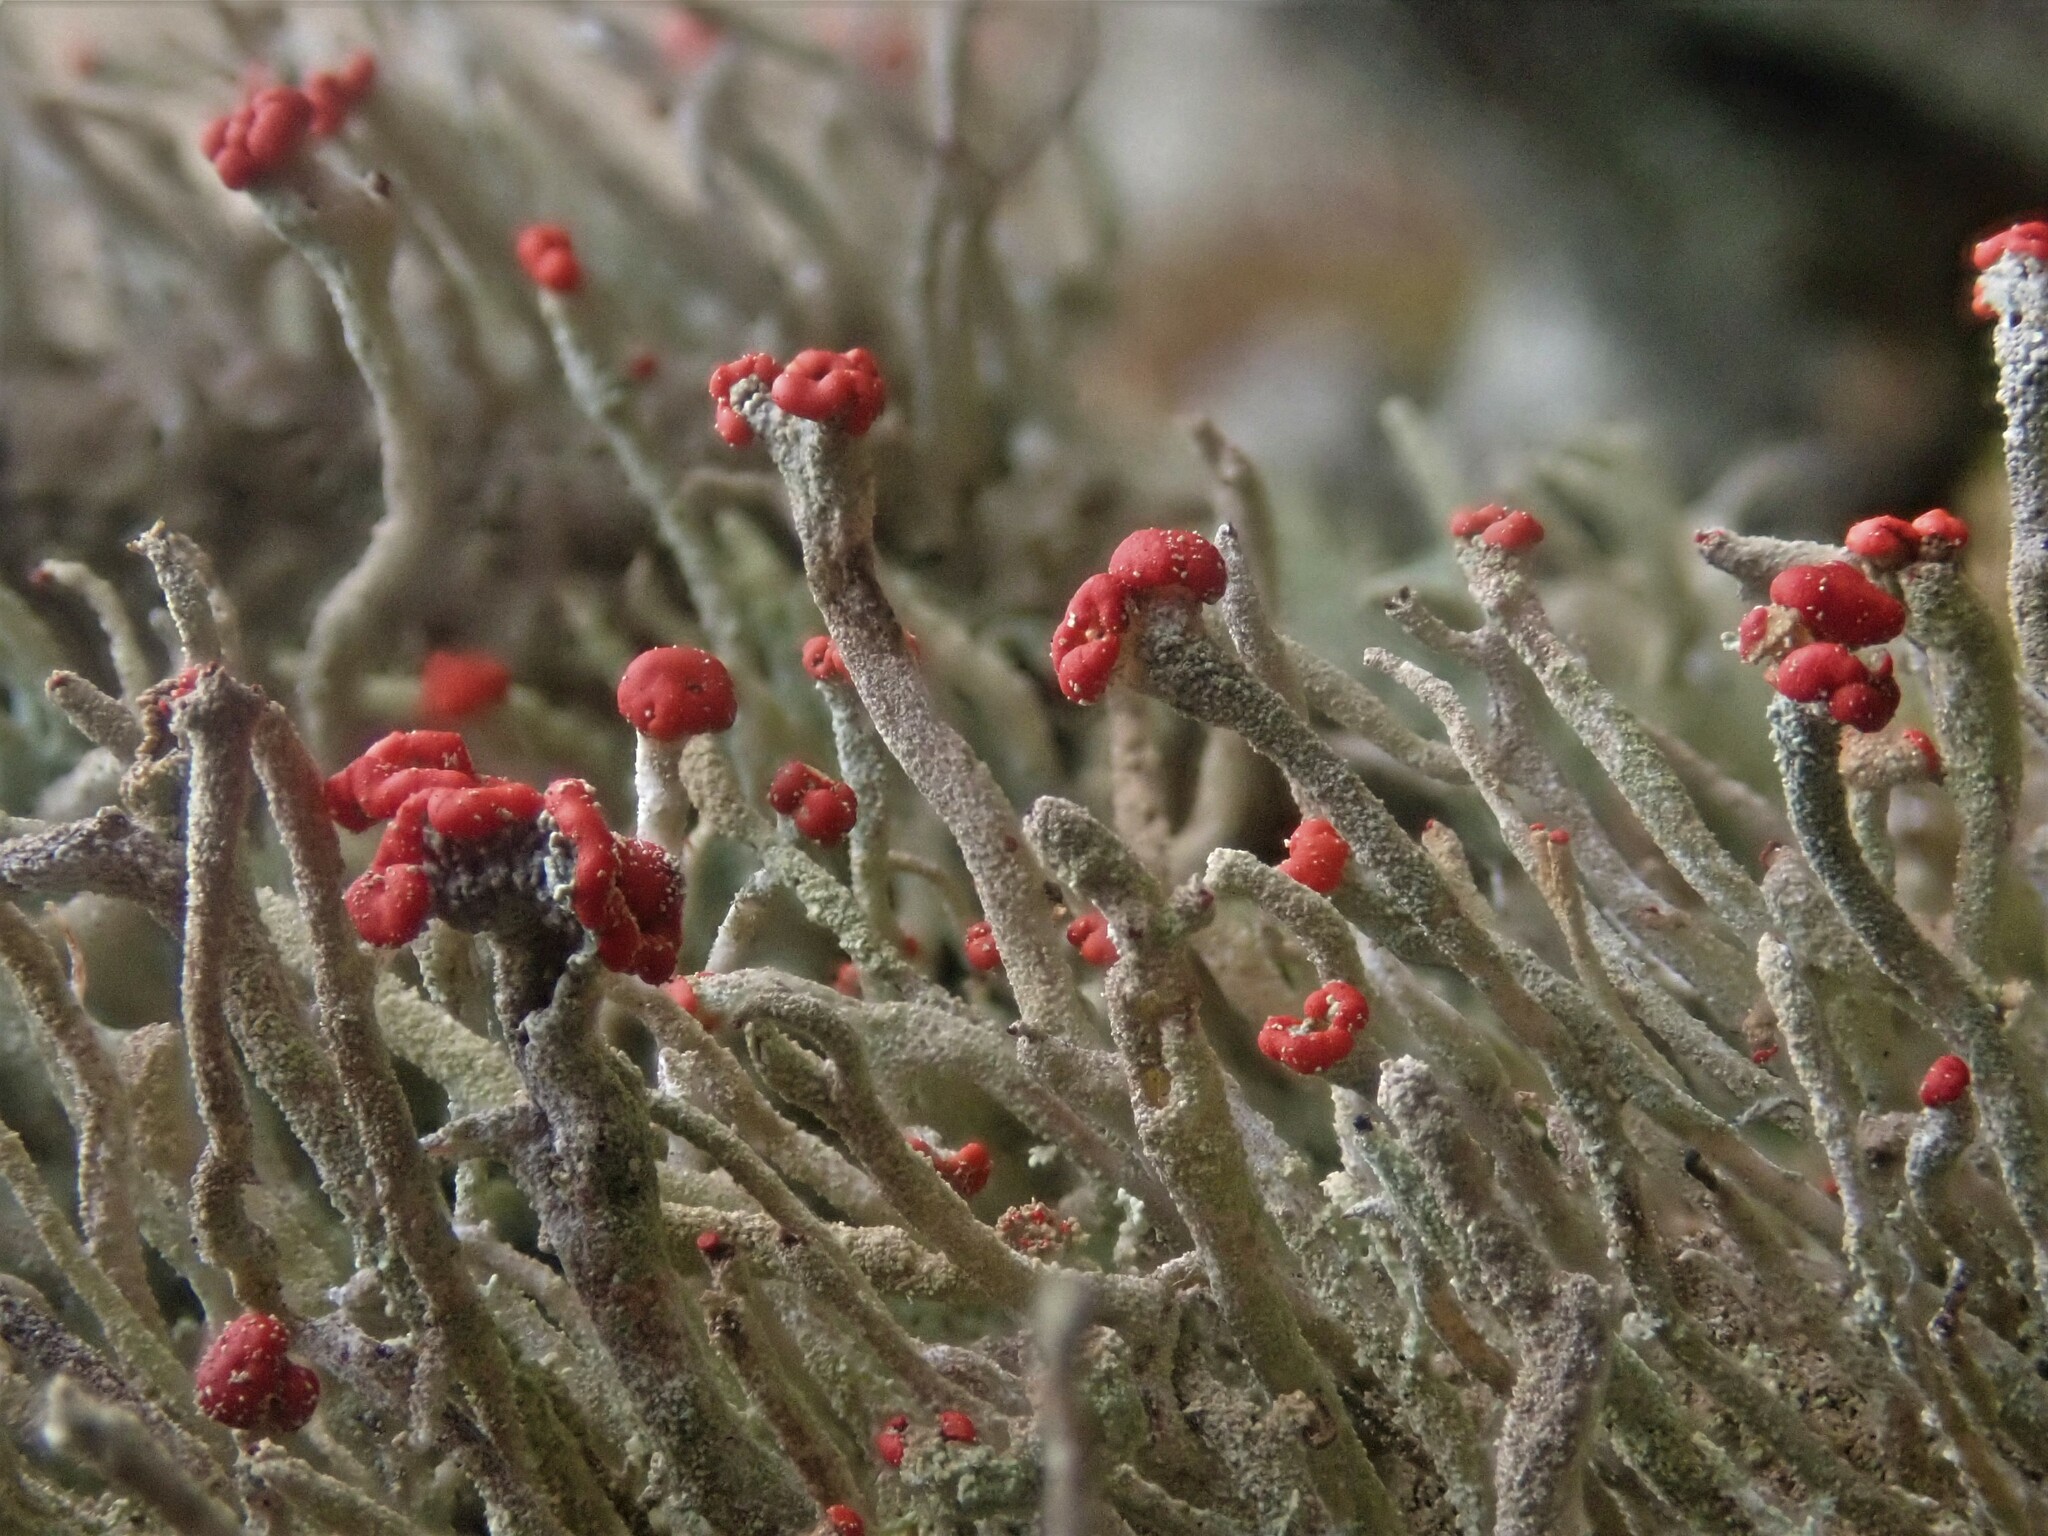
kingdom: Fungi
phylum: Ascomycota
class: Lecanoromycetes
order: Lecanorales
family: Cladoniaceae
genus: Cladonia
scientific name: Cladonia macilenta
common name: Lipstick powderhorn
